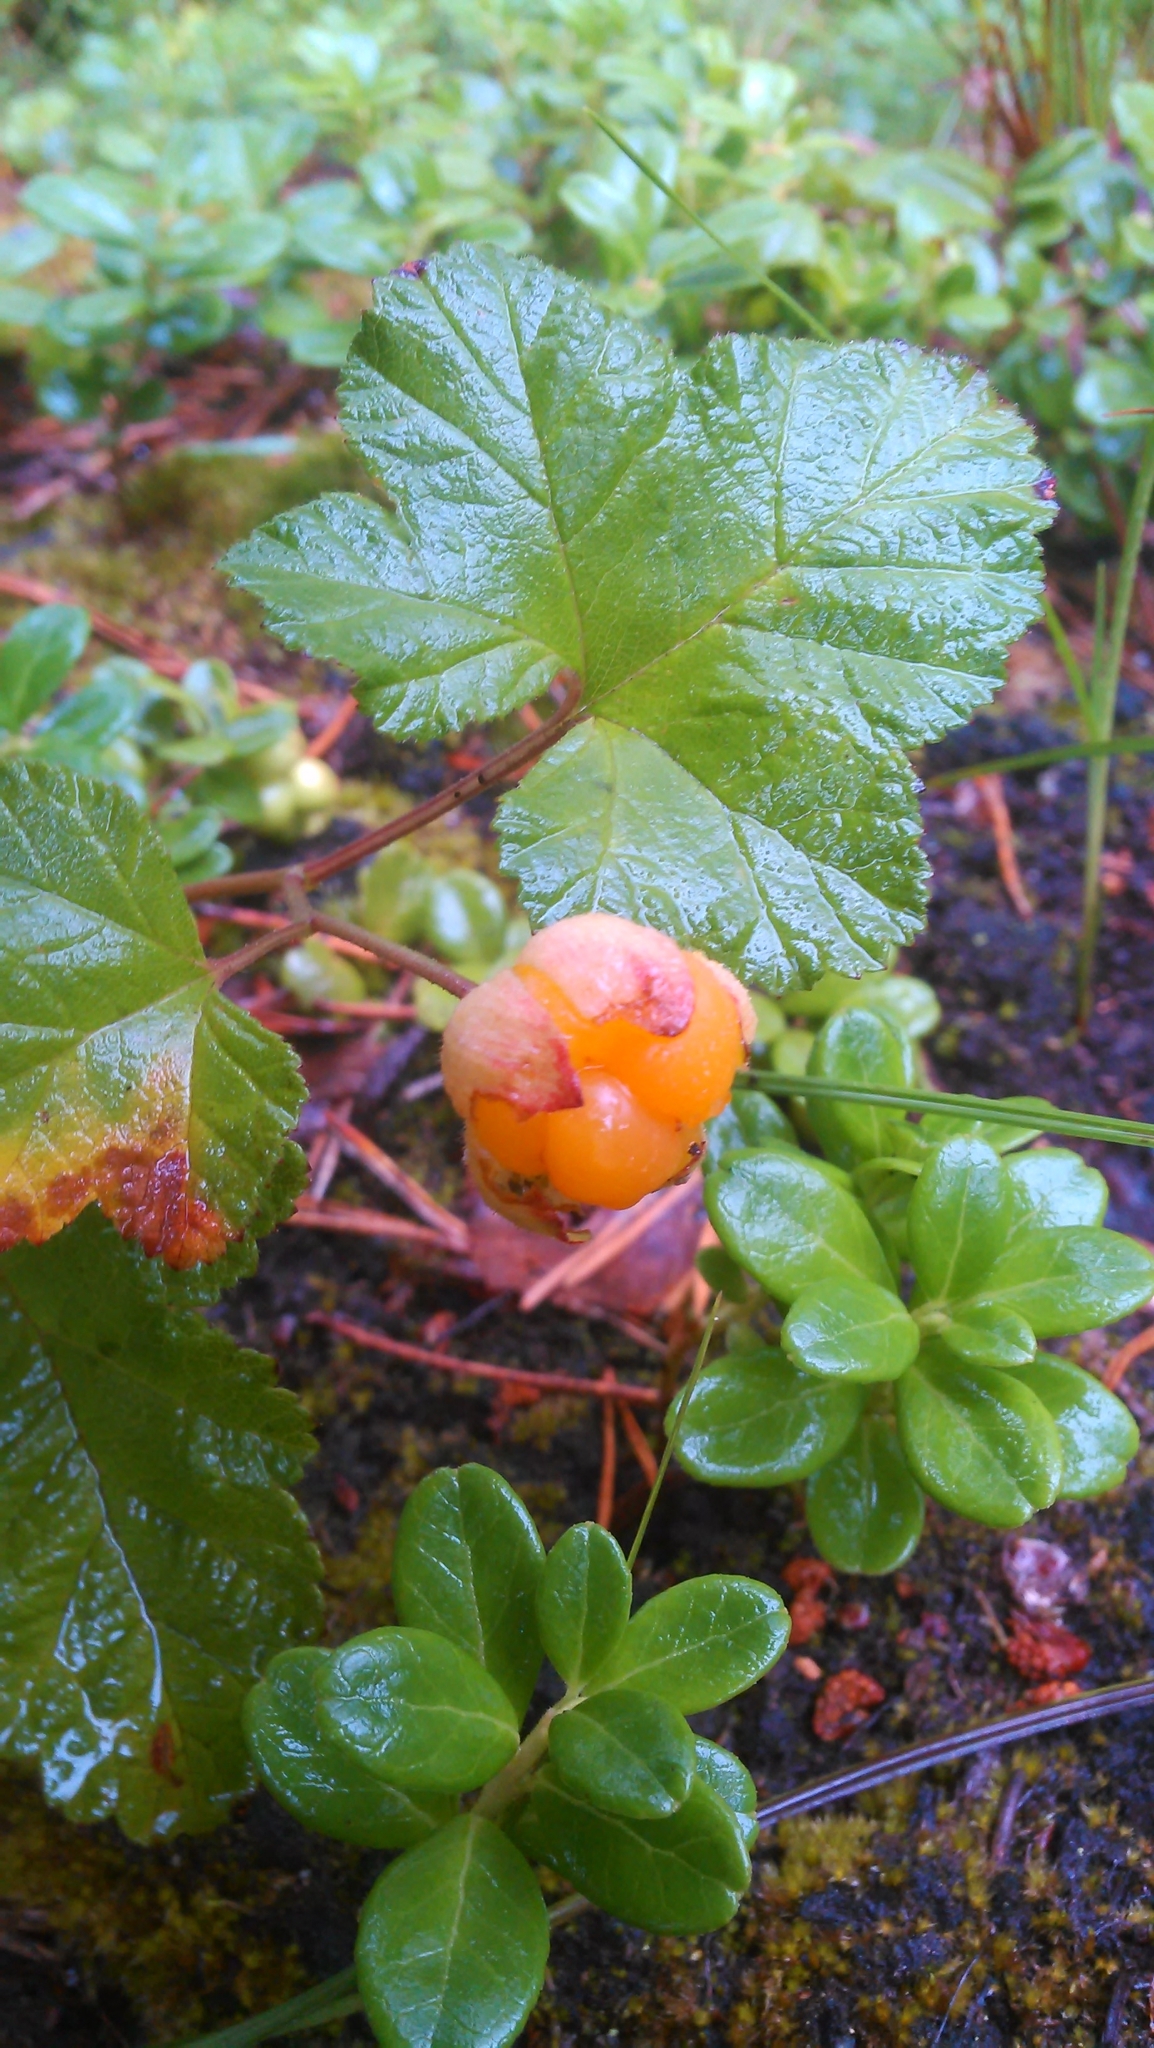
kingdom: Plantae
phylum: Tracheophyta
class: Magnoliopsida
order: Rosales
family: Rosaceae
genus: Rubus
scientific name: Rubus chamaemorus
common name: Cloudberry
